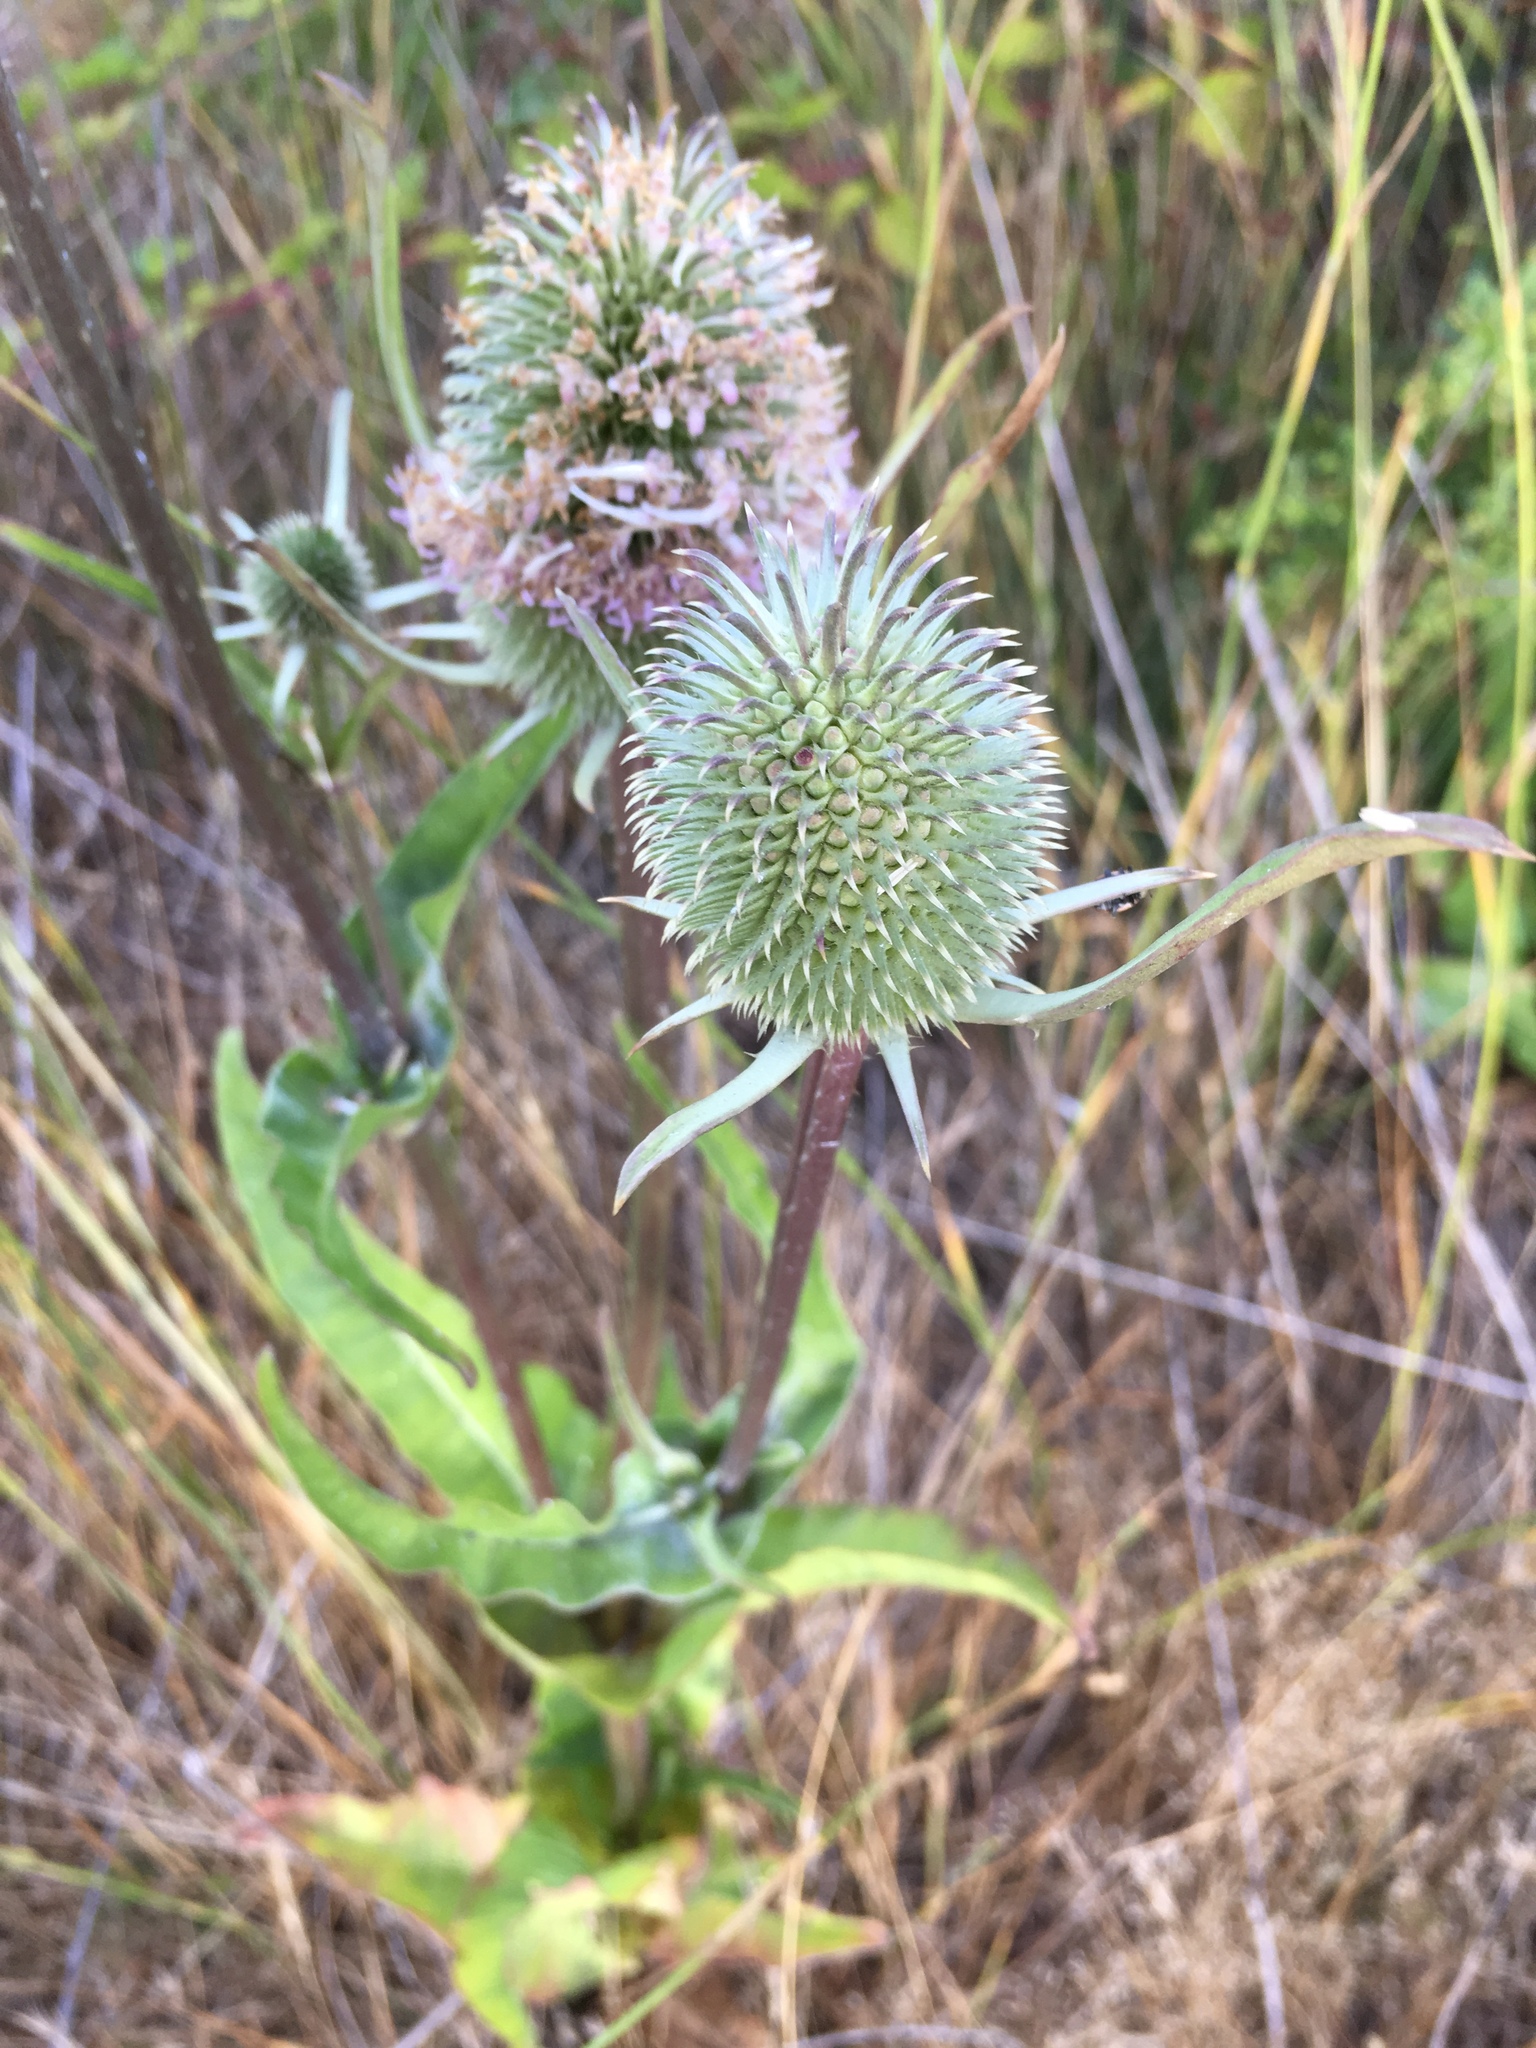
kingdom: Plantae
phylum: Tracheophyta
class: Magnoliopsida
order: Dipsacales
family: Caprifoliaceae
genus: Dipsacus
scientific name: Dipsacus sativus
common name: Fuller's teasel
